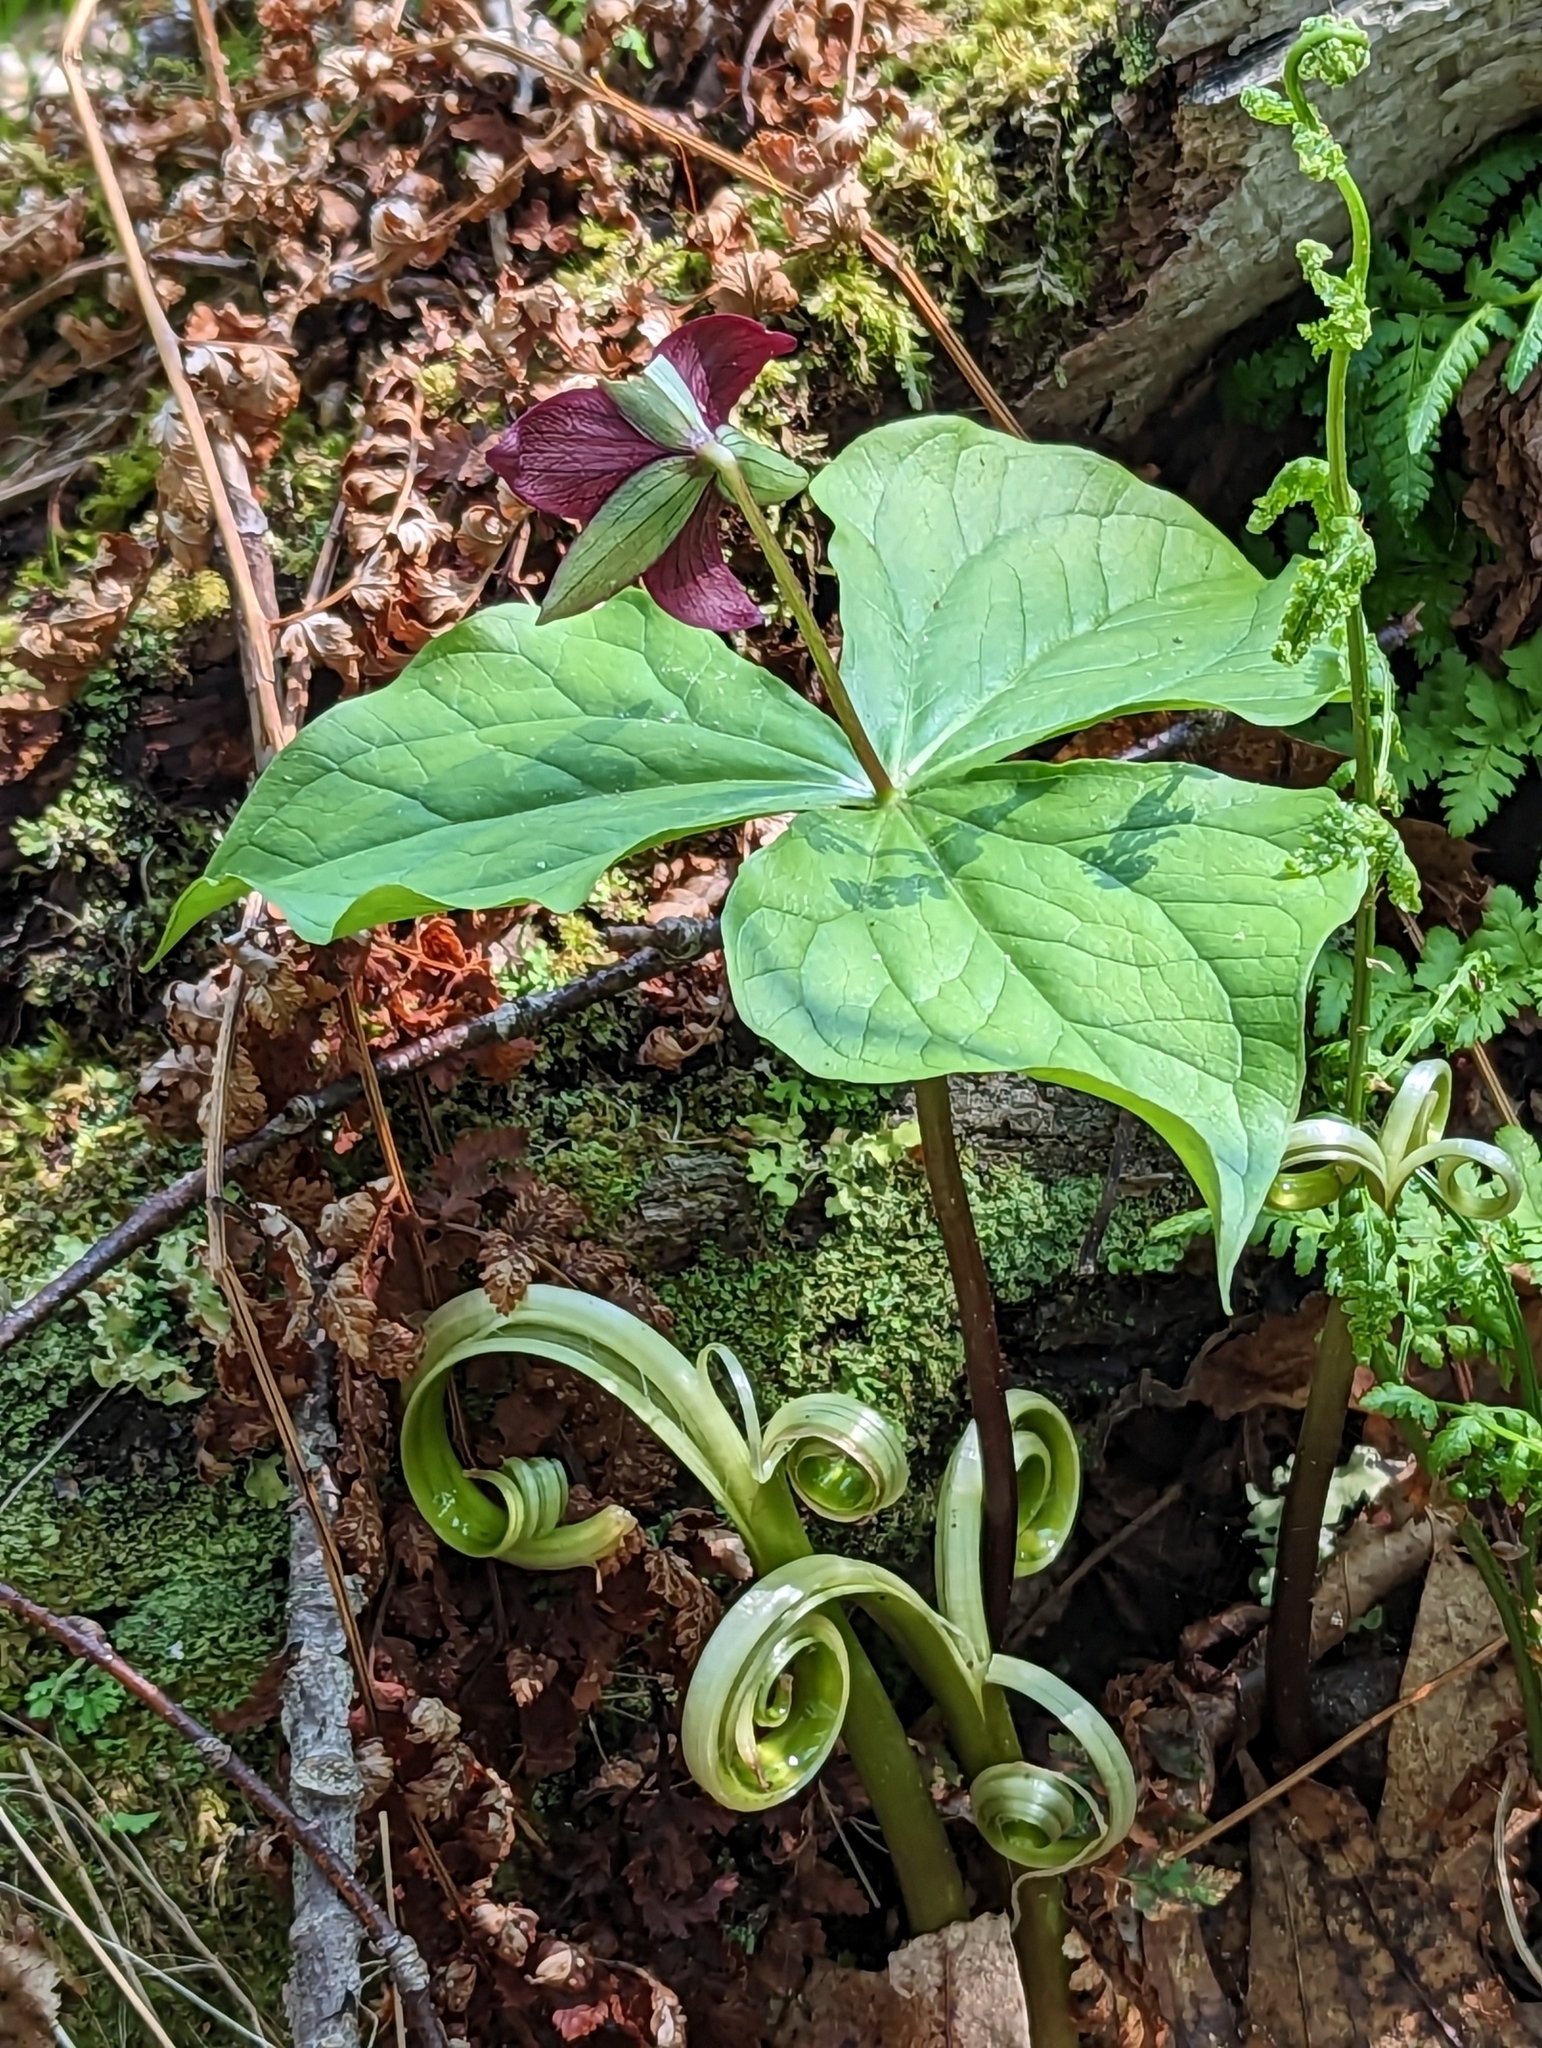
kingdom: Plantae
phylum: Tracheophyta
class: Liliopsida
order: Liliales
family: Melanthiaceae
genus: Trillium
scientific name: Trillium erectum
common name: Purple trillium
